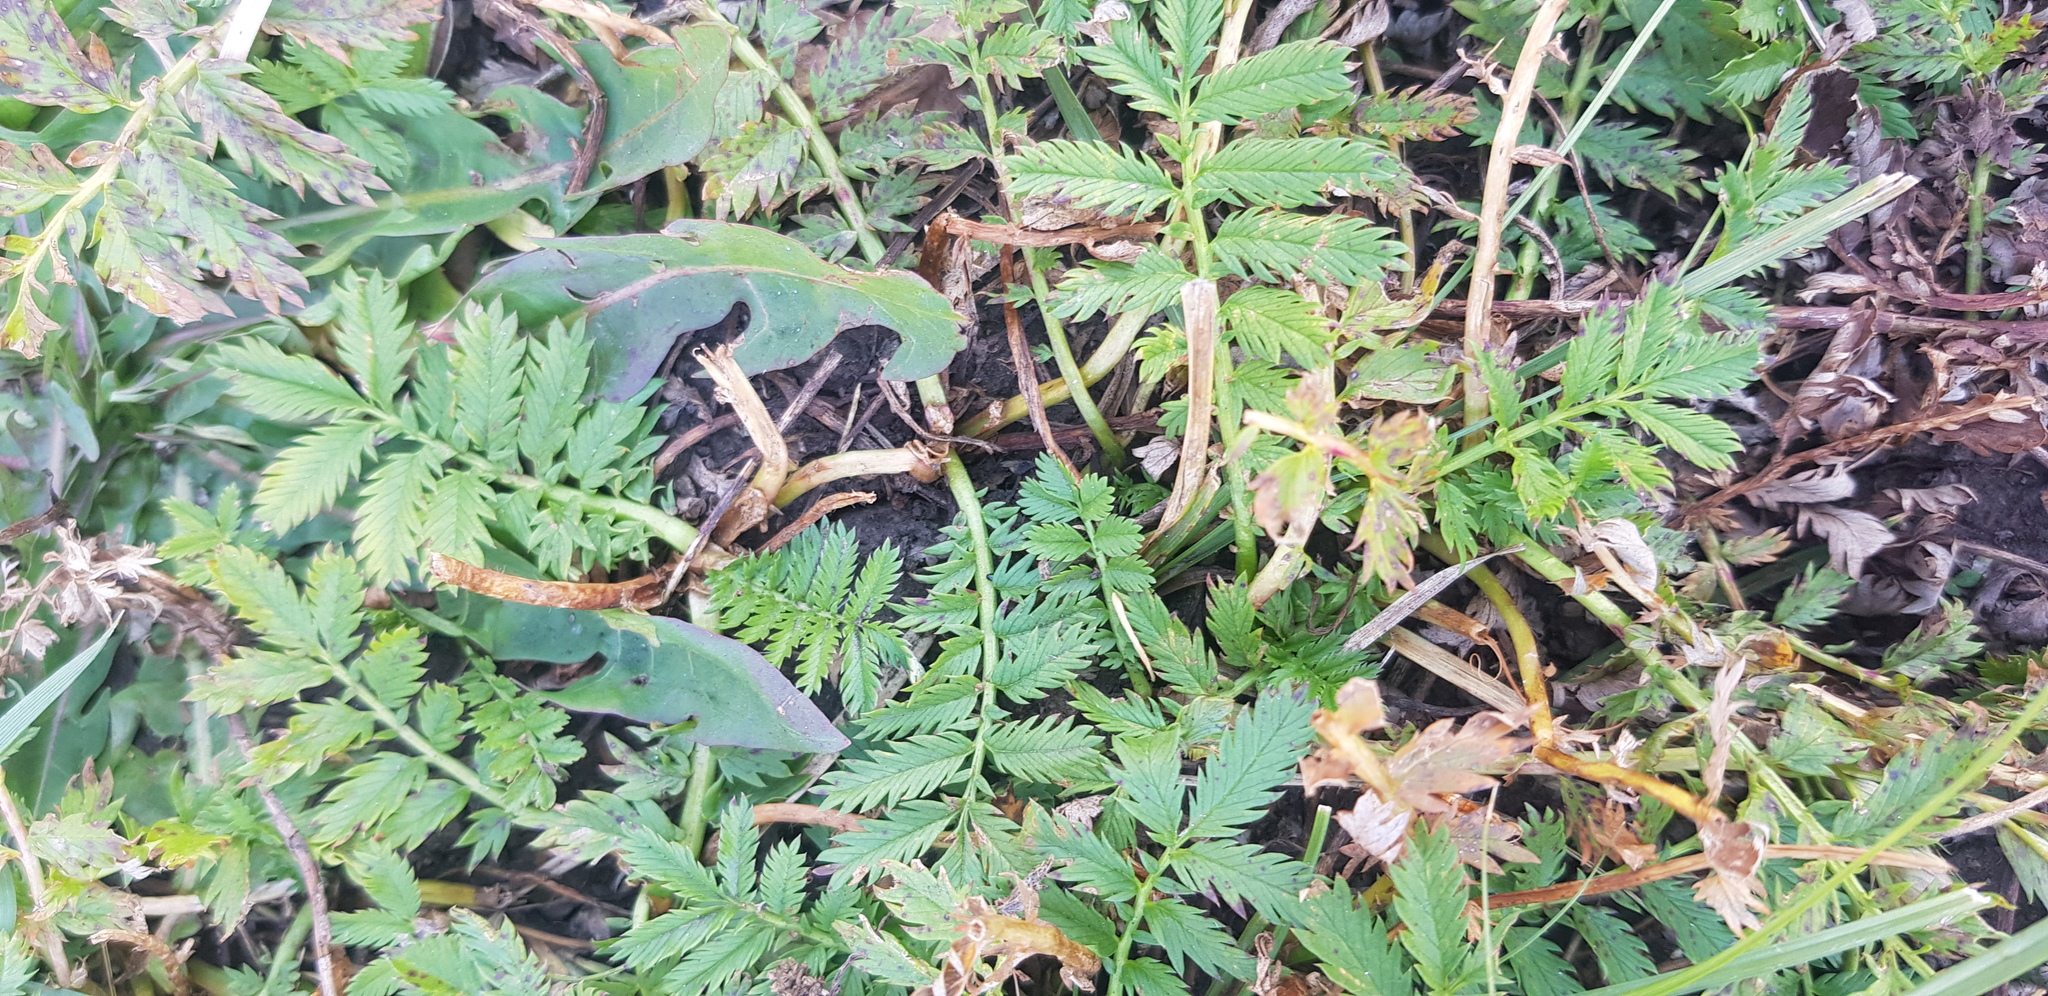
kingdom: Plantae
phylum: Tracheophyta
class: Magnoliopsida
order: Rosales
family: Rosaceae
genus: Potentilla
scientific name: Potentilla tanacetifolia
